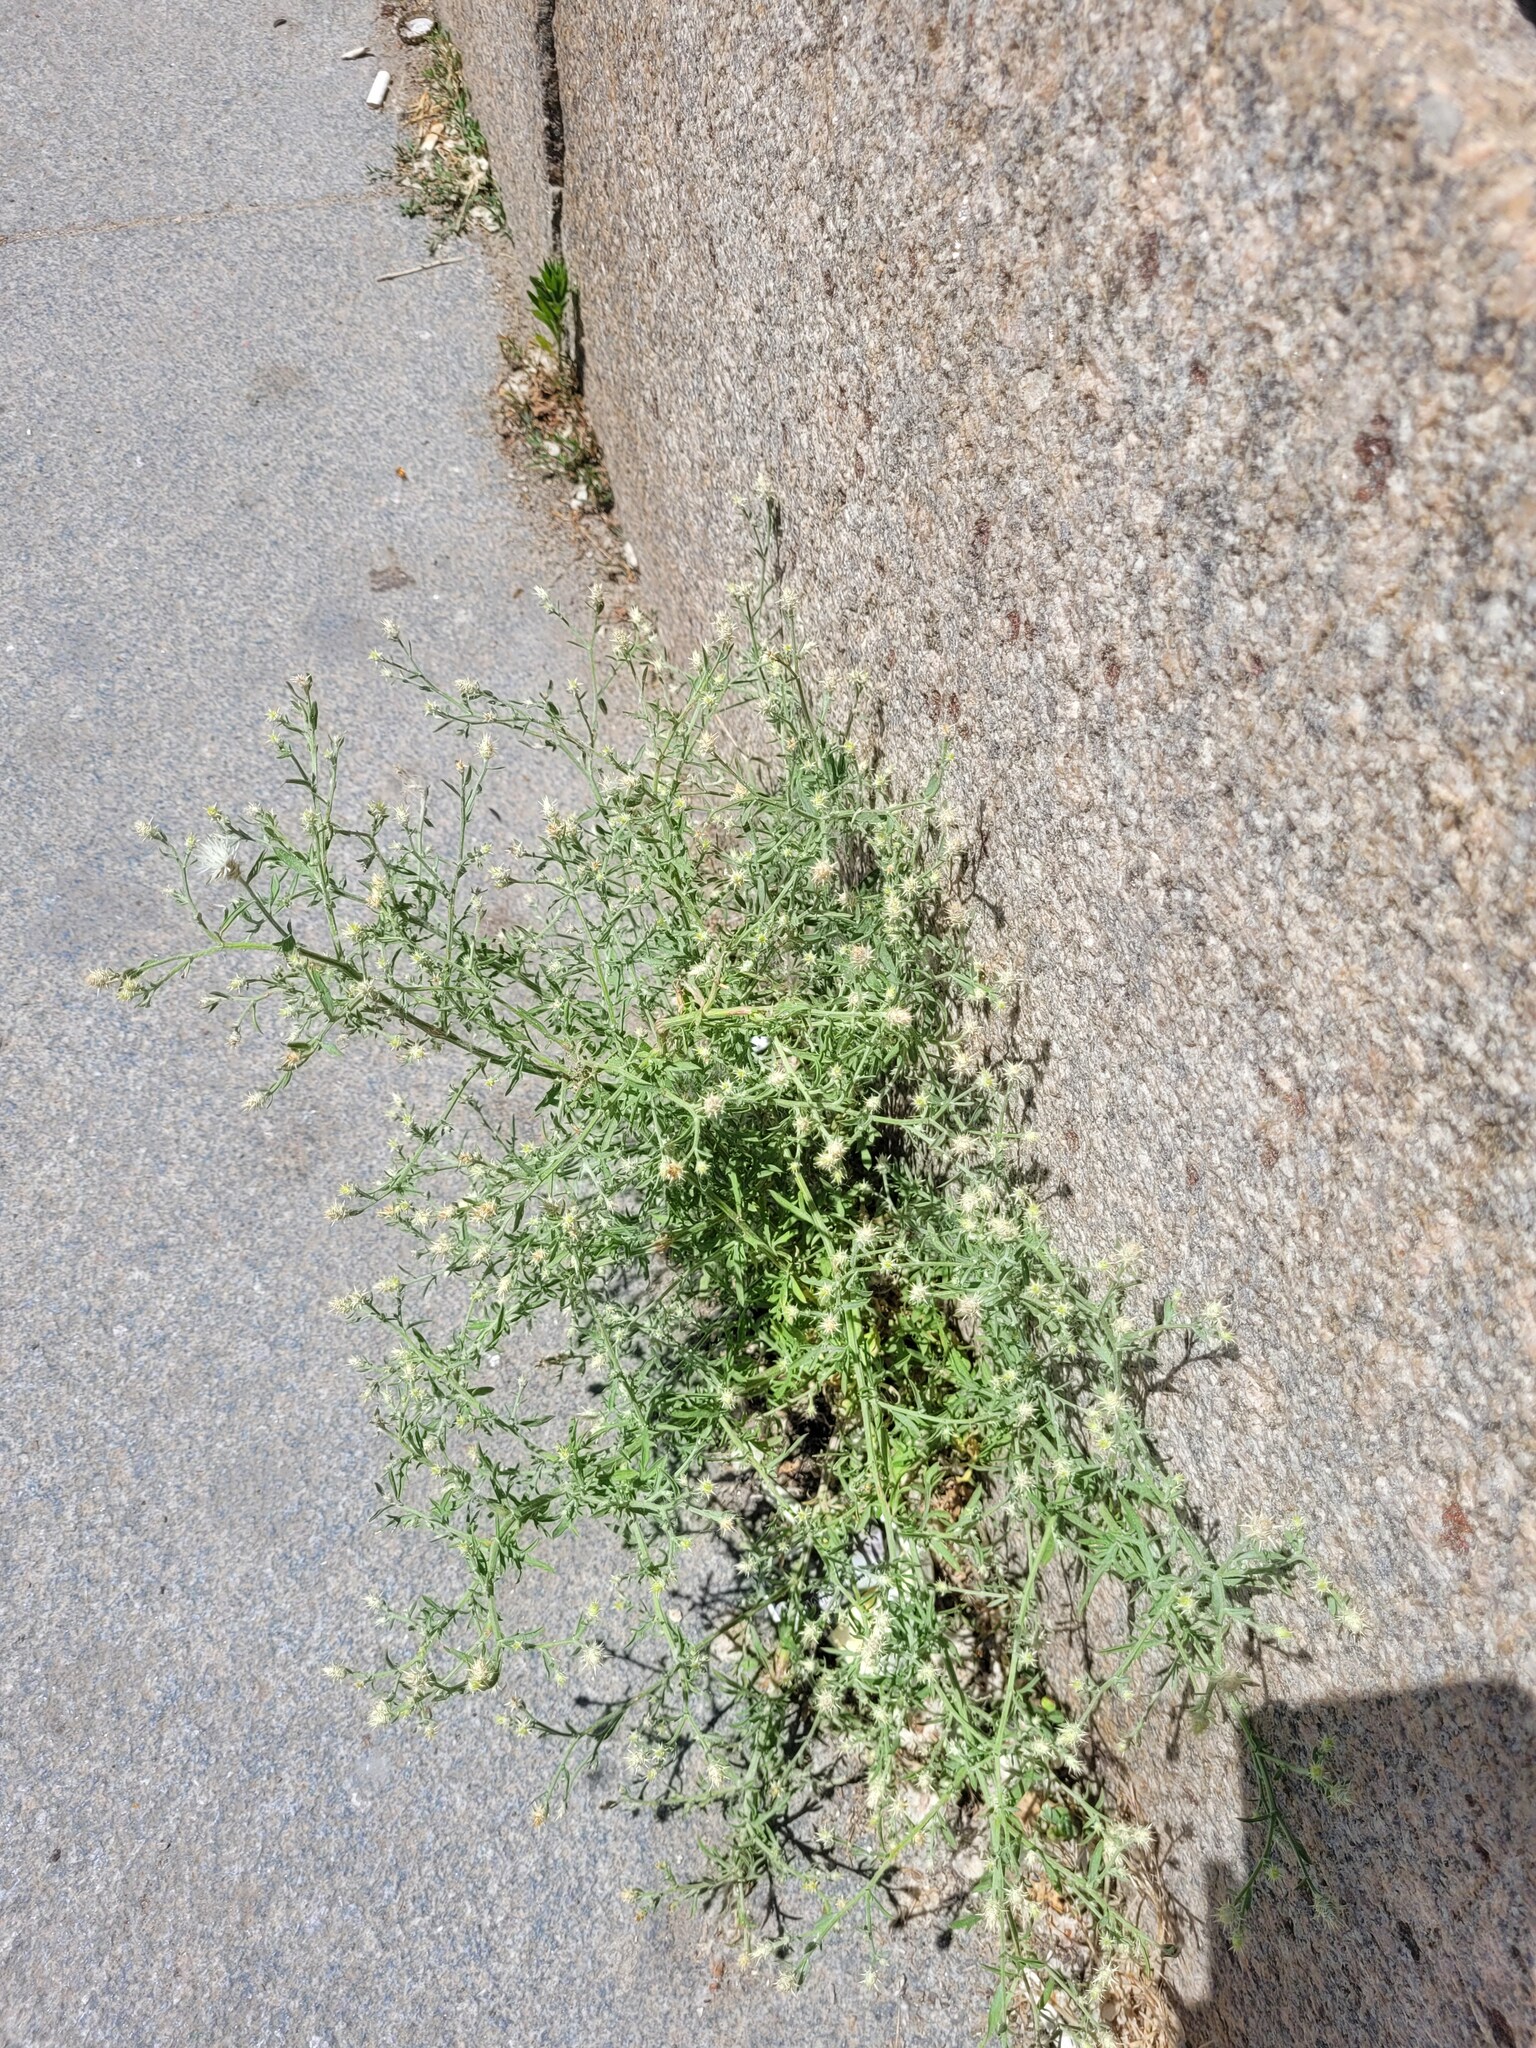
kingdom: Plantae
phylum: Tracheophyta
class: Magnoliopsida
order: Asterales
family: Asteraceae
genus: Centaurea
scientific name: Centaurea diffusa
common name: Diffuse knapweed
